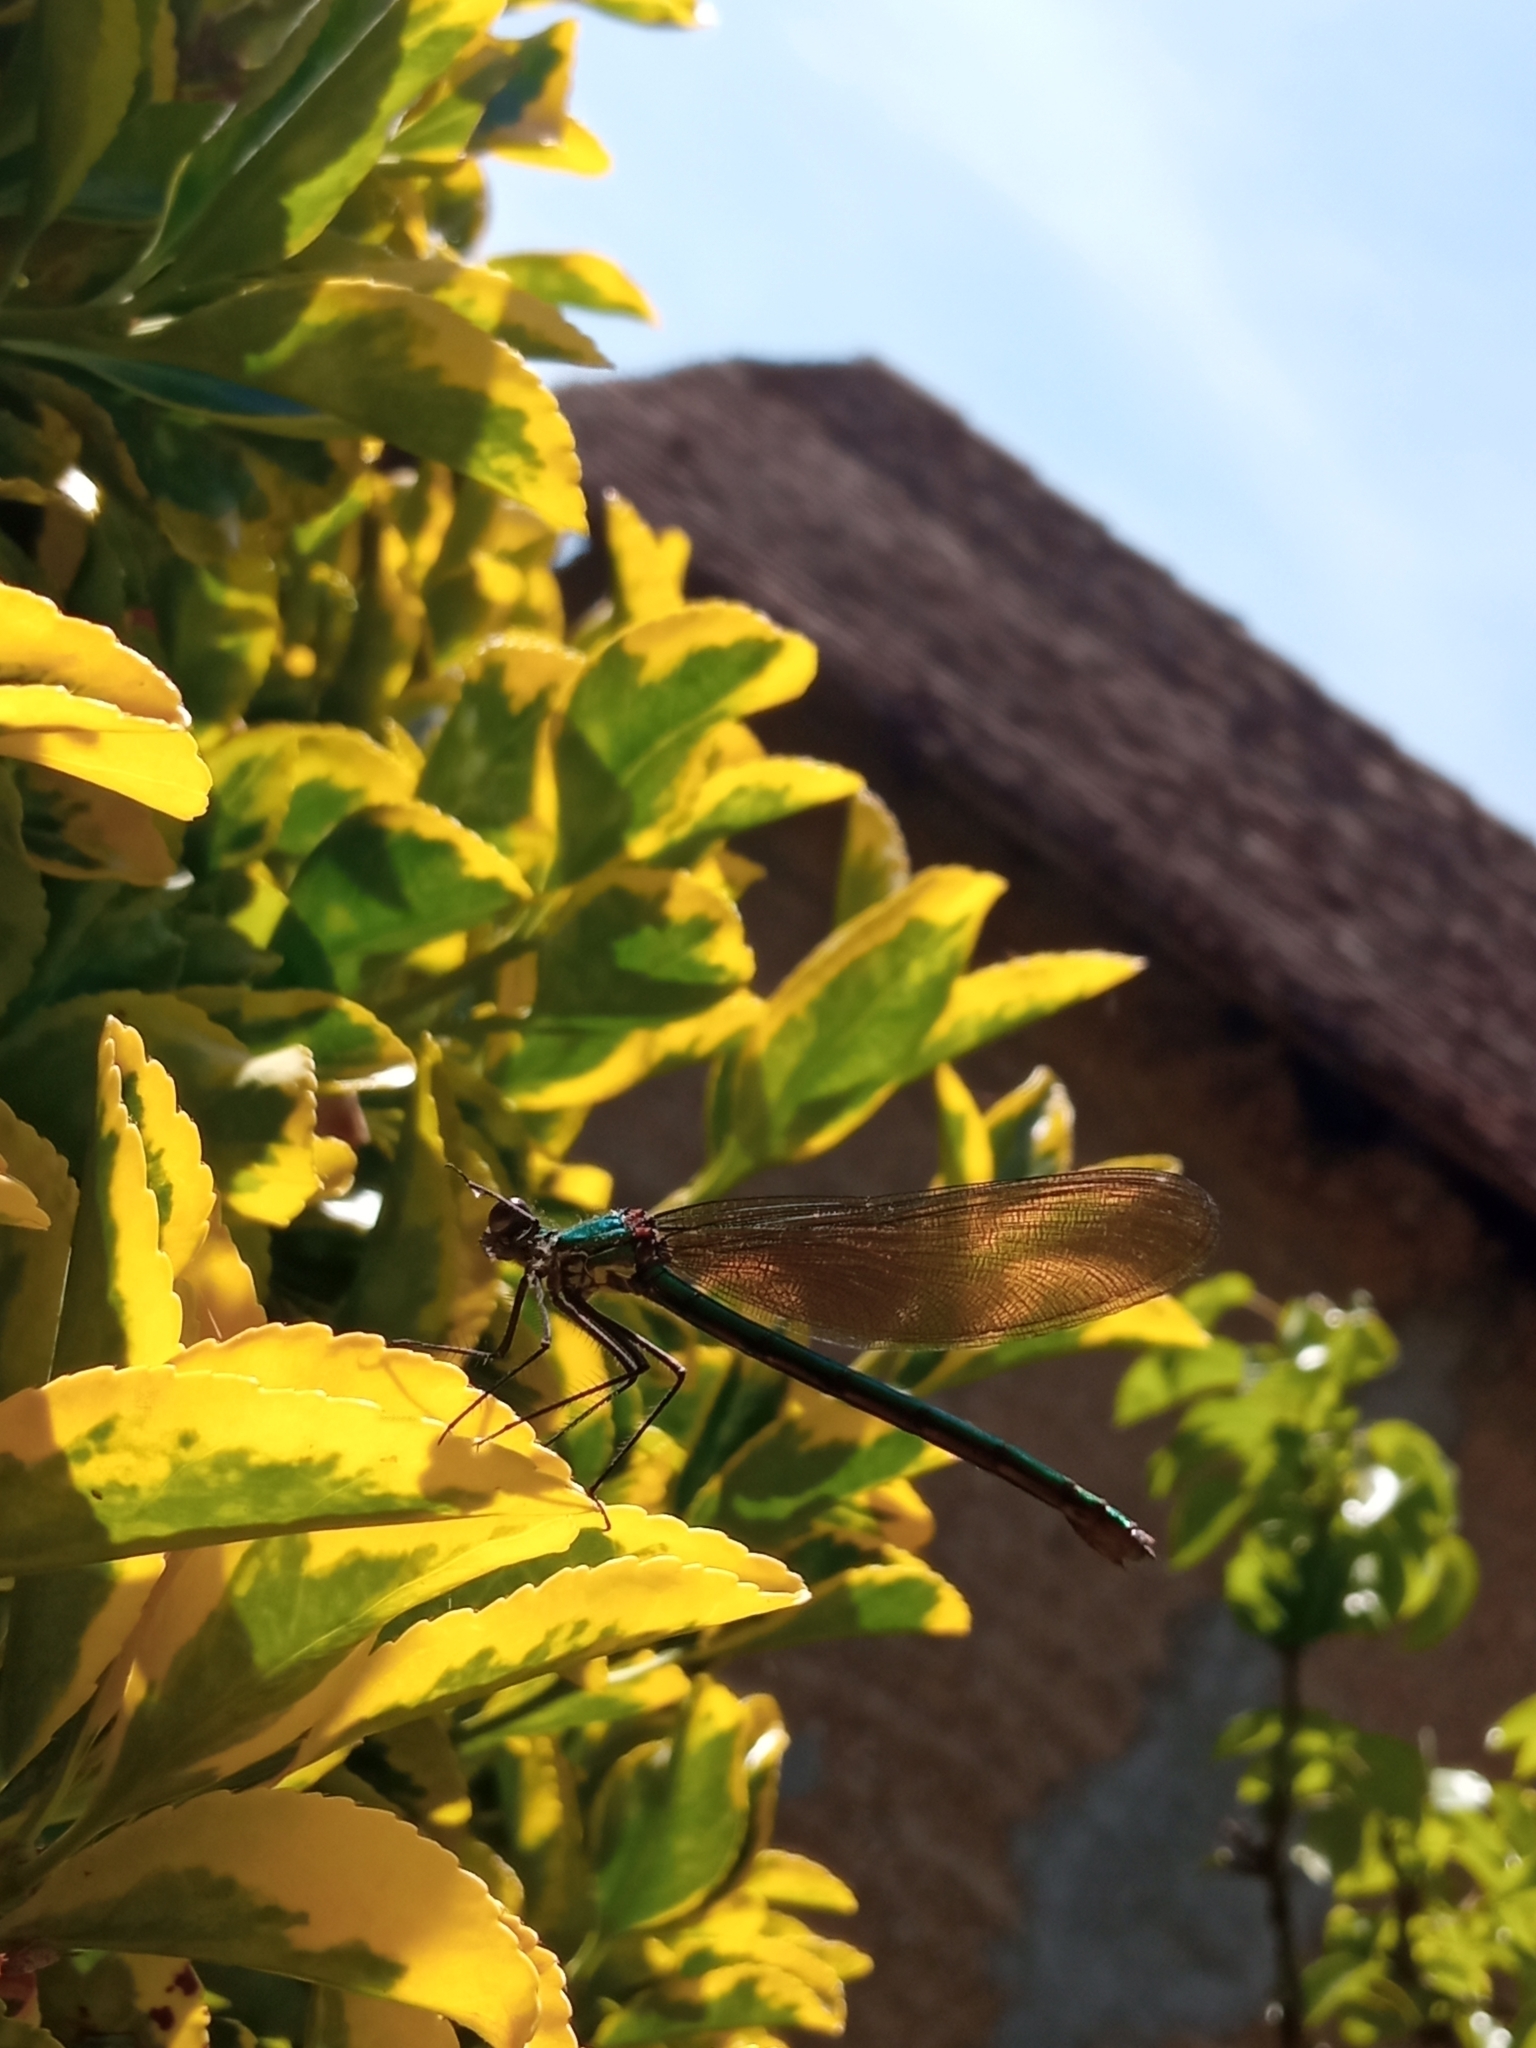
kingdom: Animalia
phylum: Arthropoda
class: Insecta
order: Odonata
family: Calopterygidae
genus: Calopteryx
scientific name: Calopteryx virgo
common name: Beautiful demoiselle
